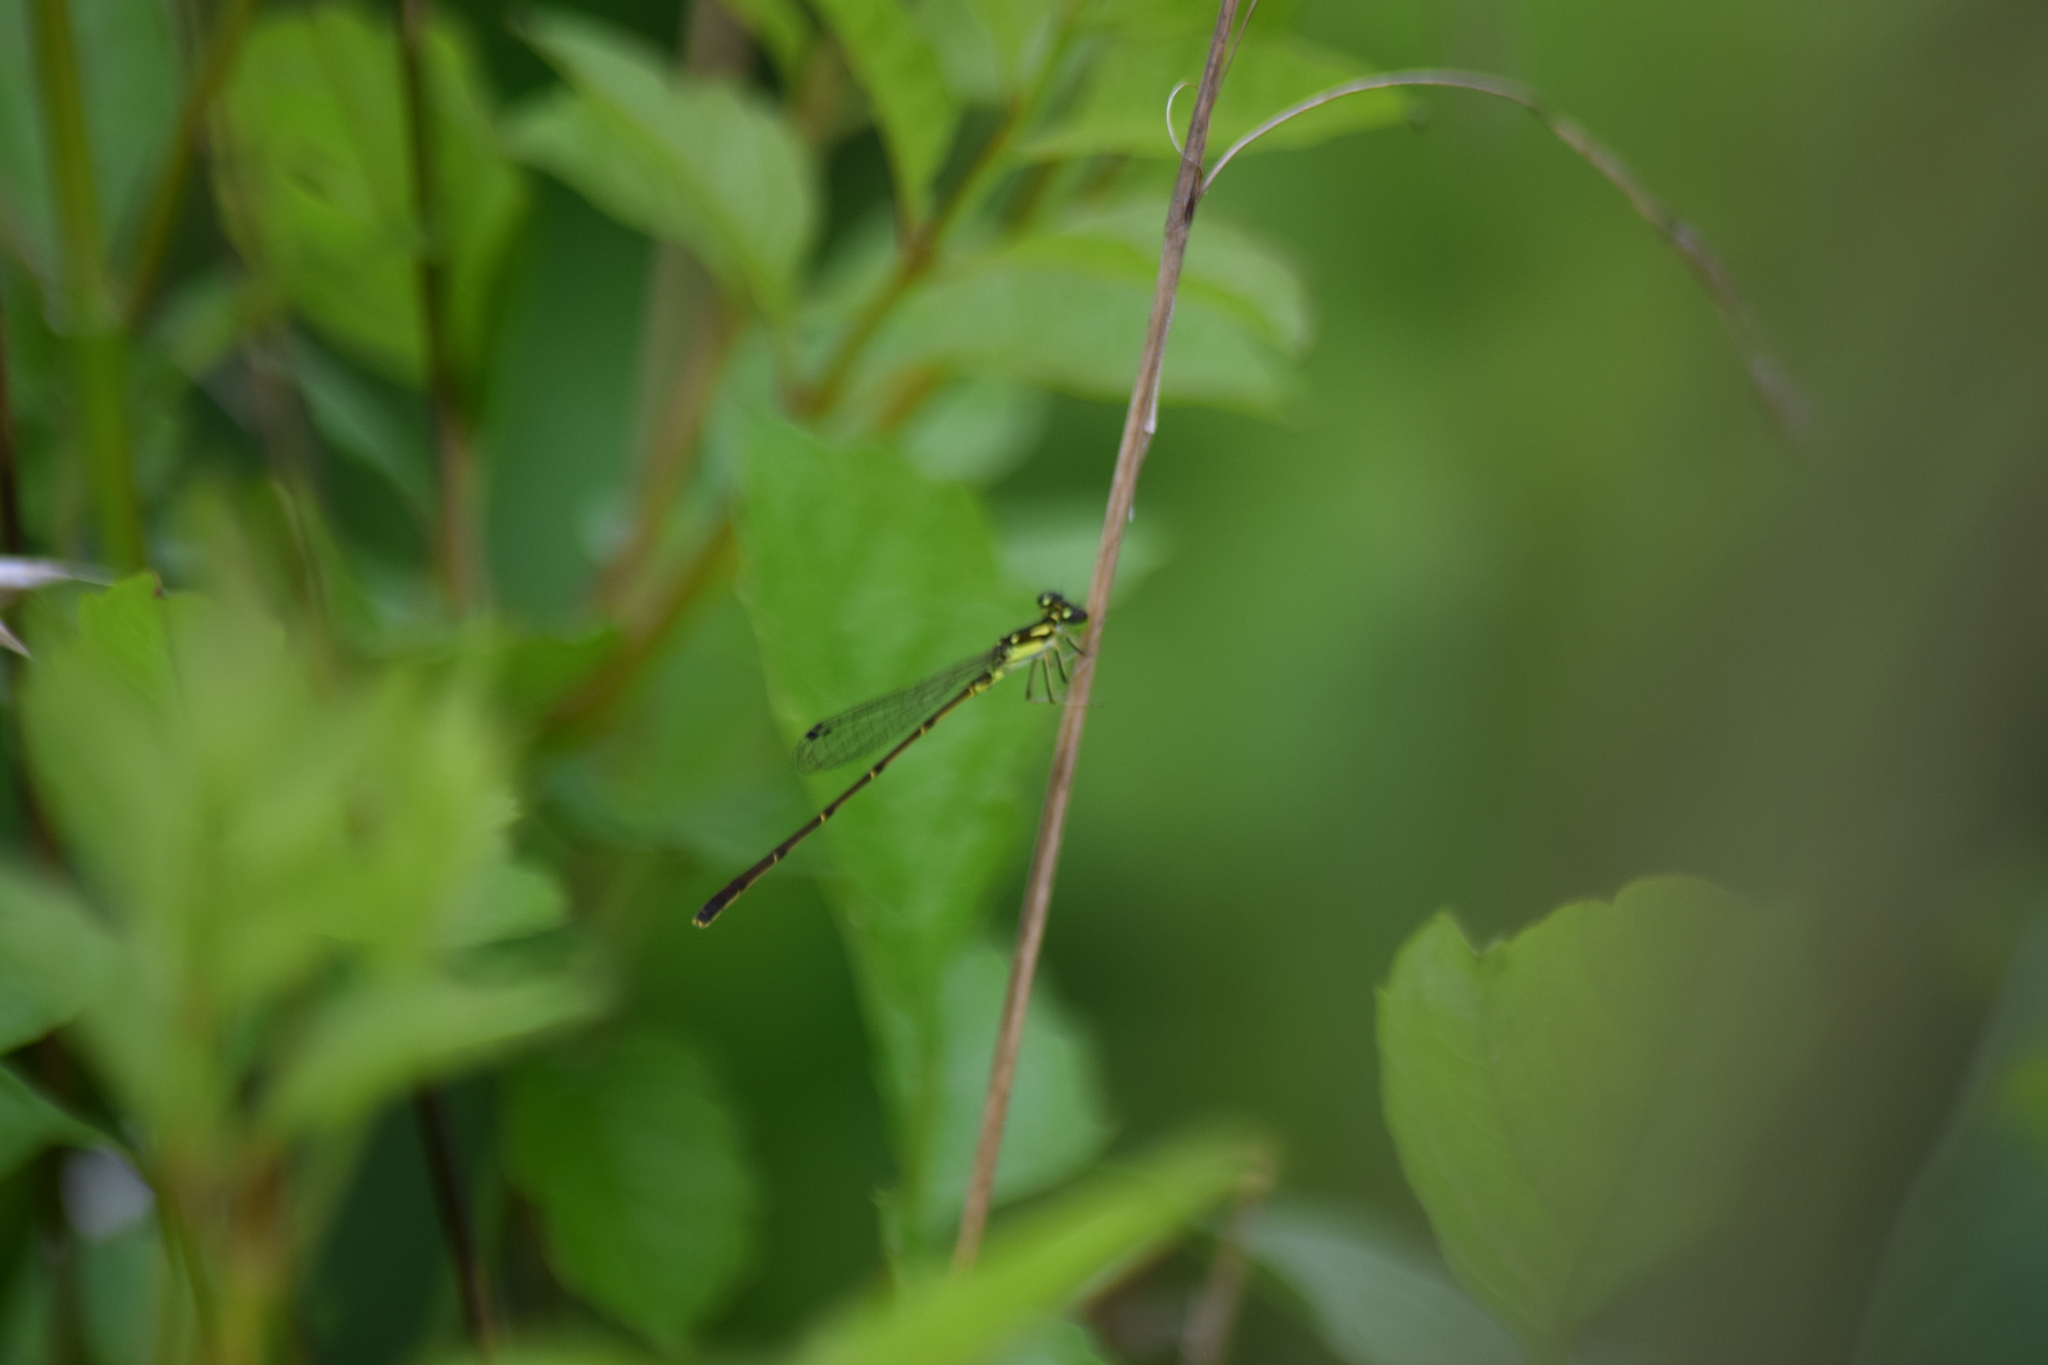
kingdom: Animalia
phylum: Arthropoda
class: Insecta
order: Odonata
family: Coenagrionidae
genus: Ischnura
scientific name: Ischnura posita
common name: Fragile forktail
